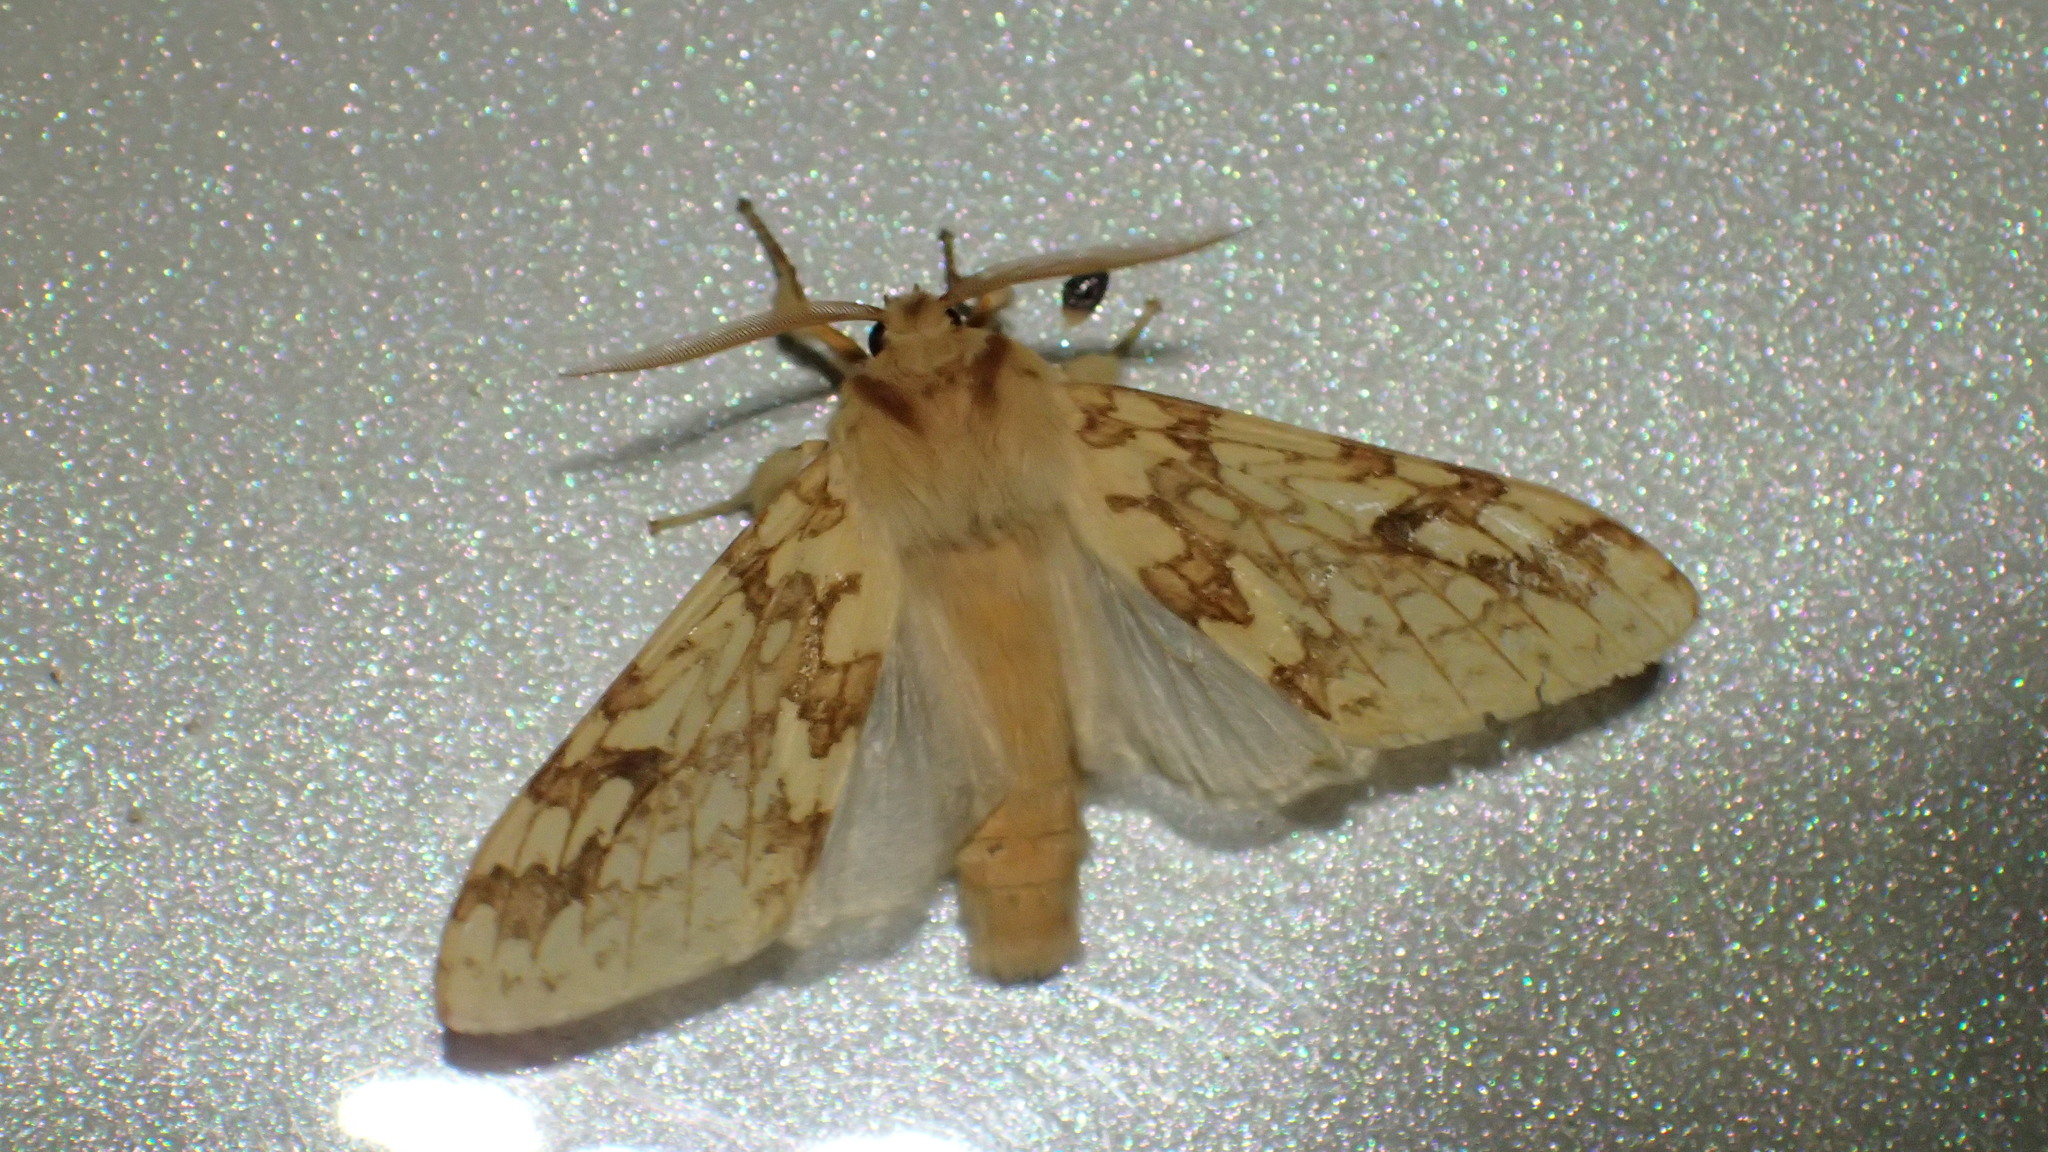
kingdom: Animalia
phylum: Arthropoda
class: Insecta
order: Lepidoptera
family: Erebidae
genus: Lophocampa
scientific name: Lophocampa maculata
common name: Spotted tussock moth
